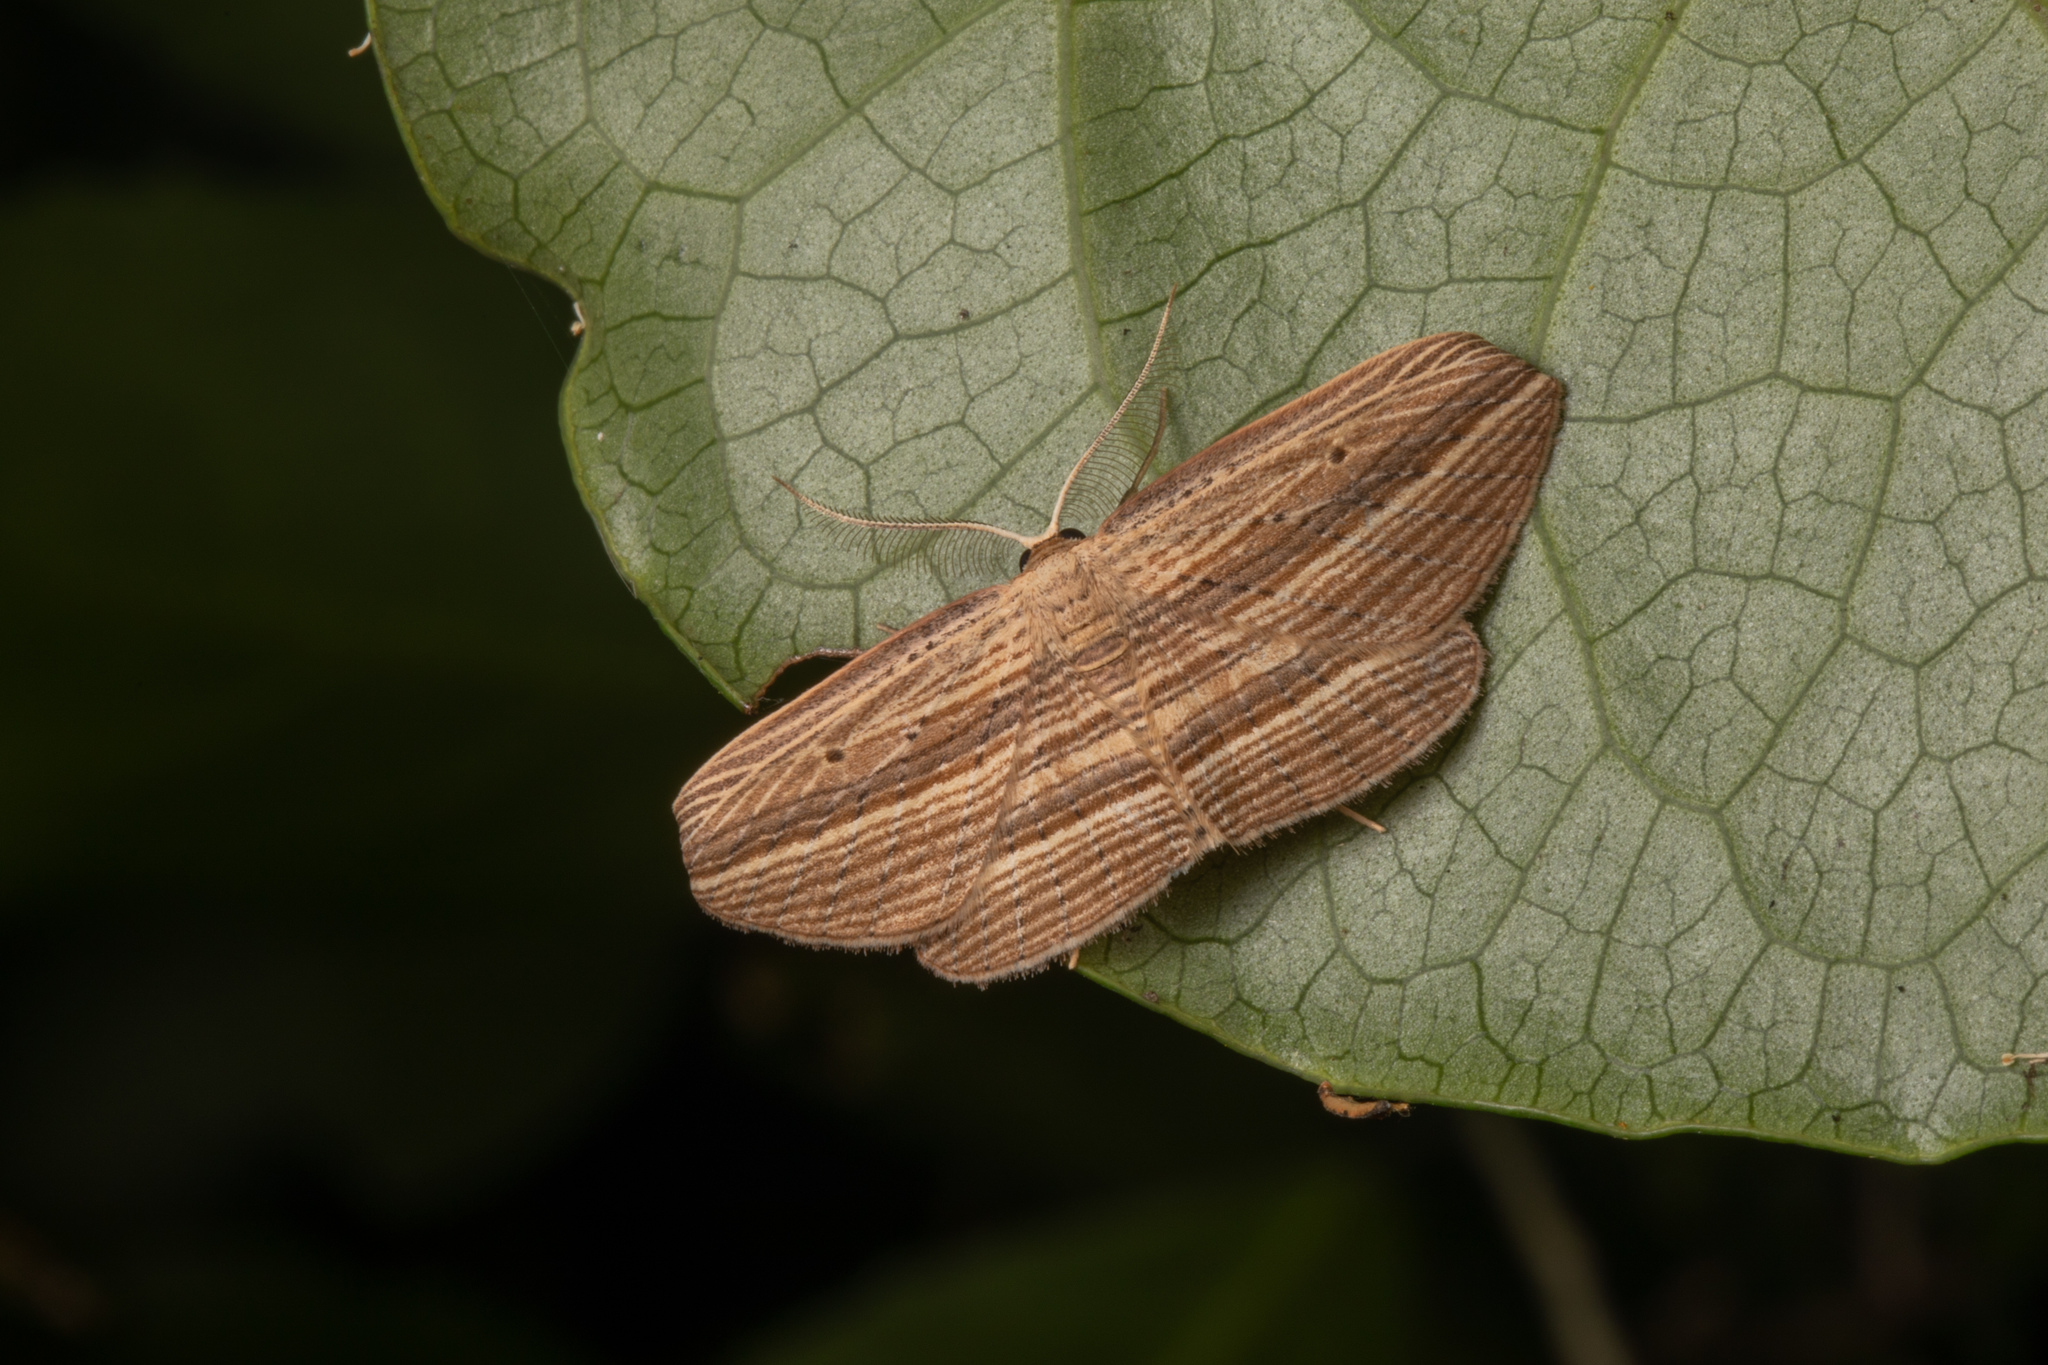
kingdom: Animalia
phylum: Arthropoda
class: Insecta
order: Lepidoptera
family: Geometridae
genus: Epiphryne
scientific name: Epiphryne verriculata
